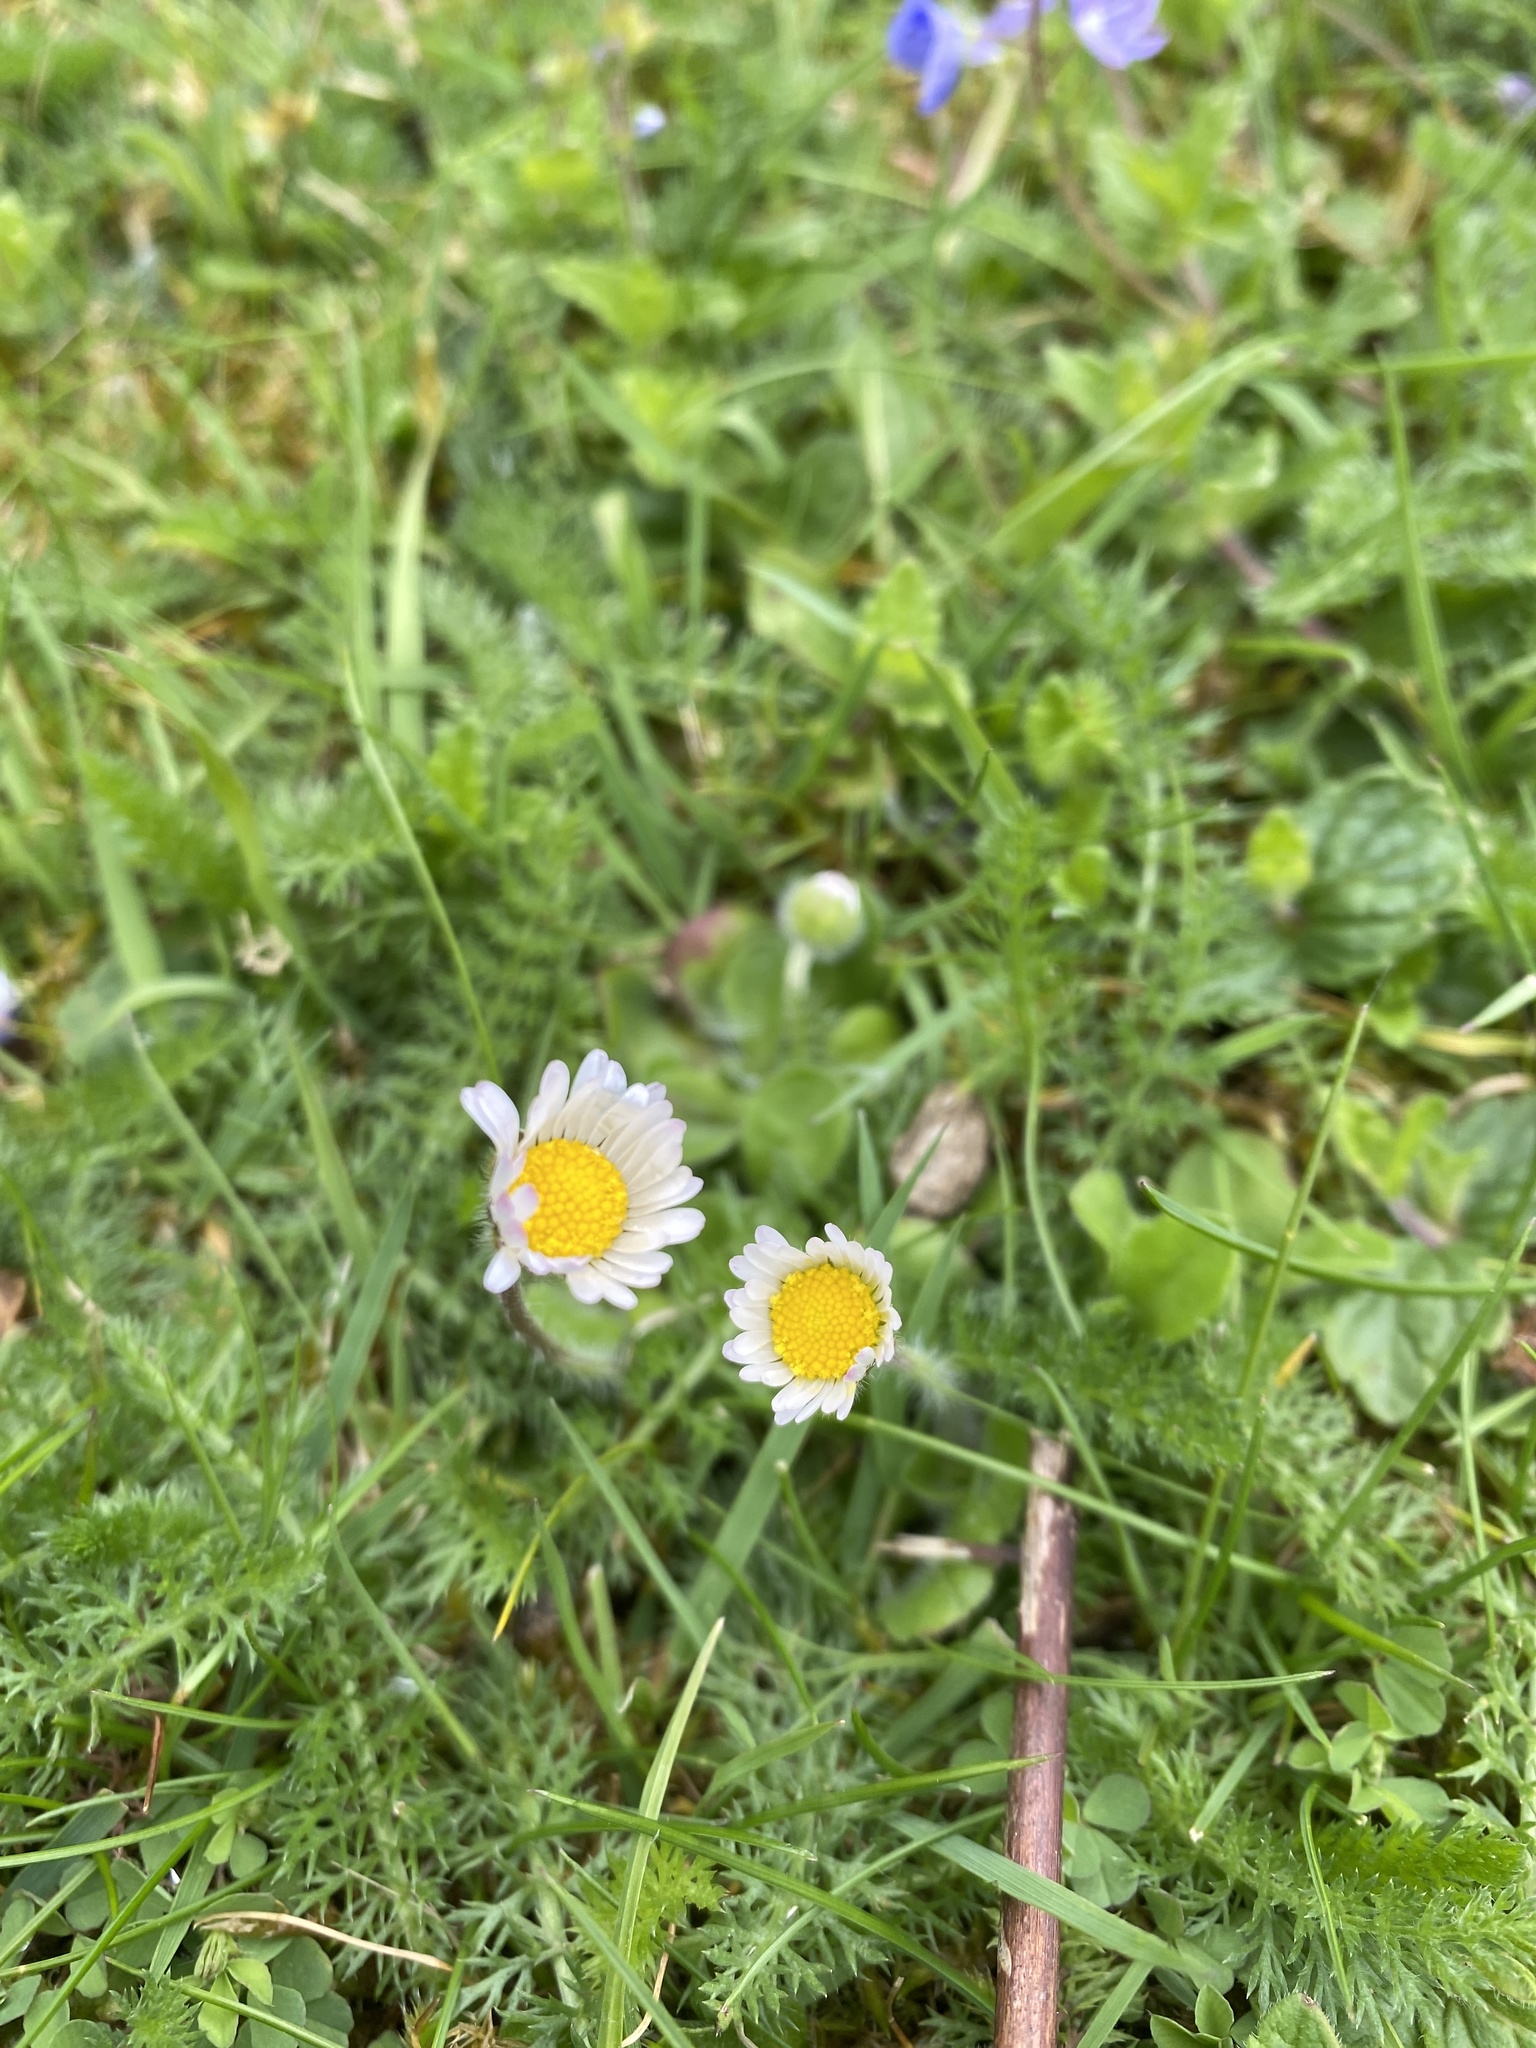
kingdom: Plantae
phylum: Tracheophyta
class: Magnoliopsida
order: Asterales
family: Asteraceae
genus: Bellis
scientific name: Bellis perennis
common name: Lawndaisy
